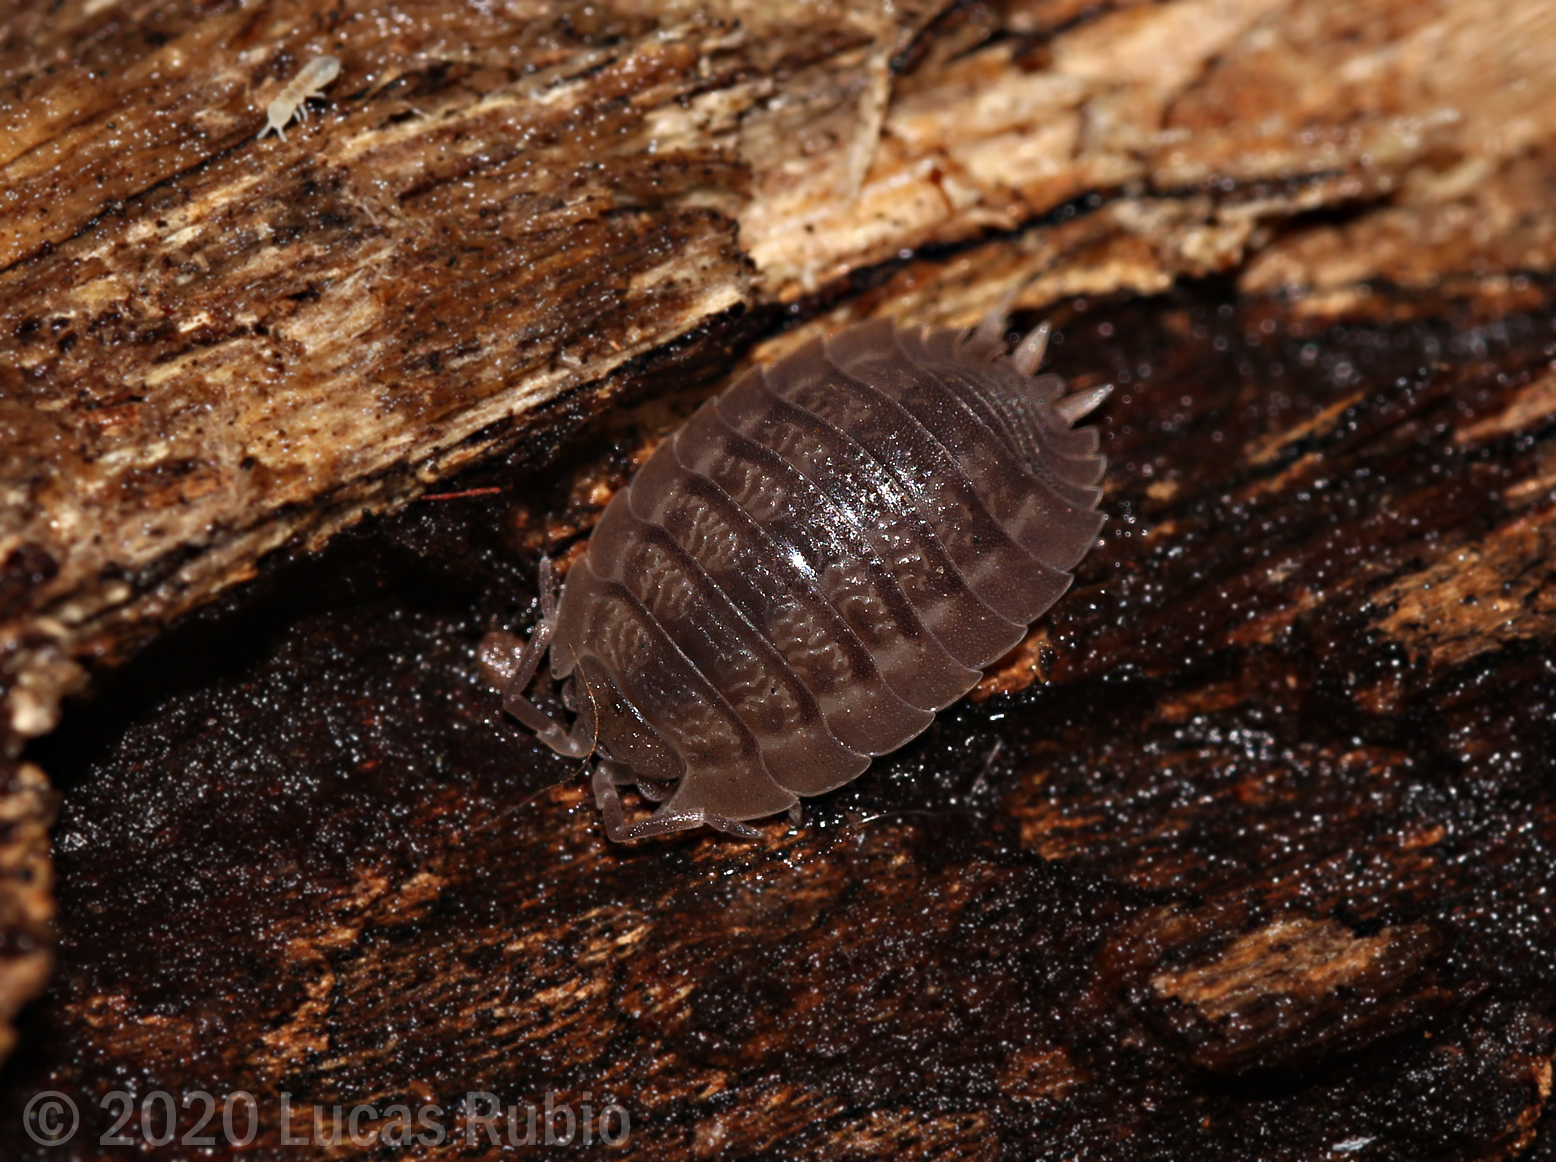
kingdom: Animalia
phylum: Arthropoda
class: Malacostraca
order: Isopoda
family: Porcellionidae
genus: Porcellio
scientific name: Porcellio dilatatus
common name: Isopod
